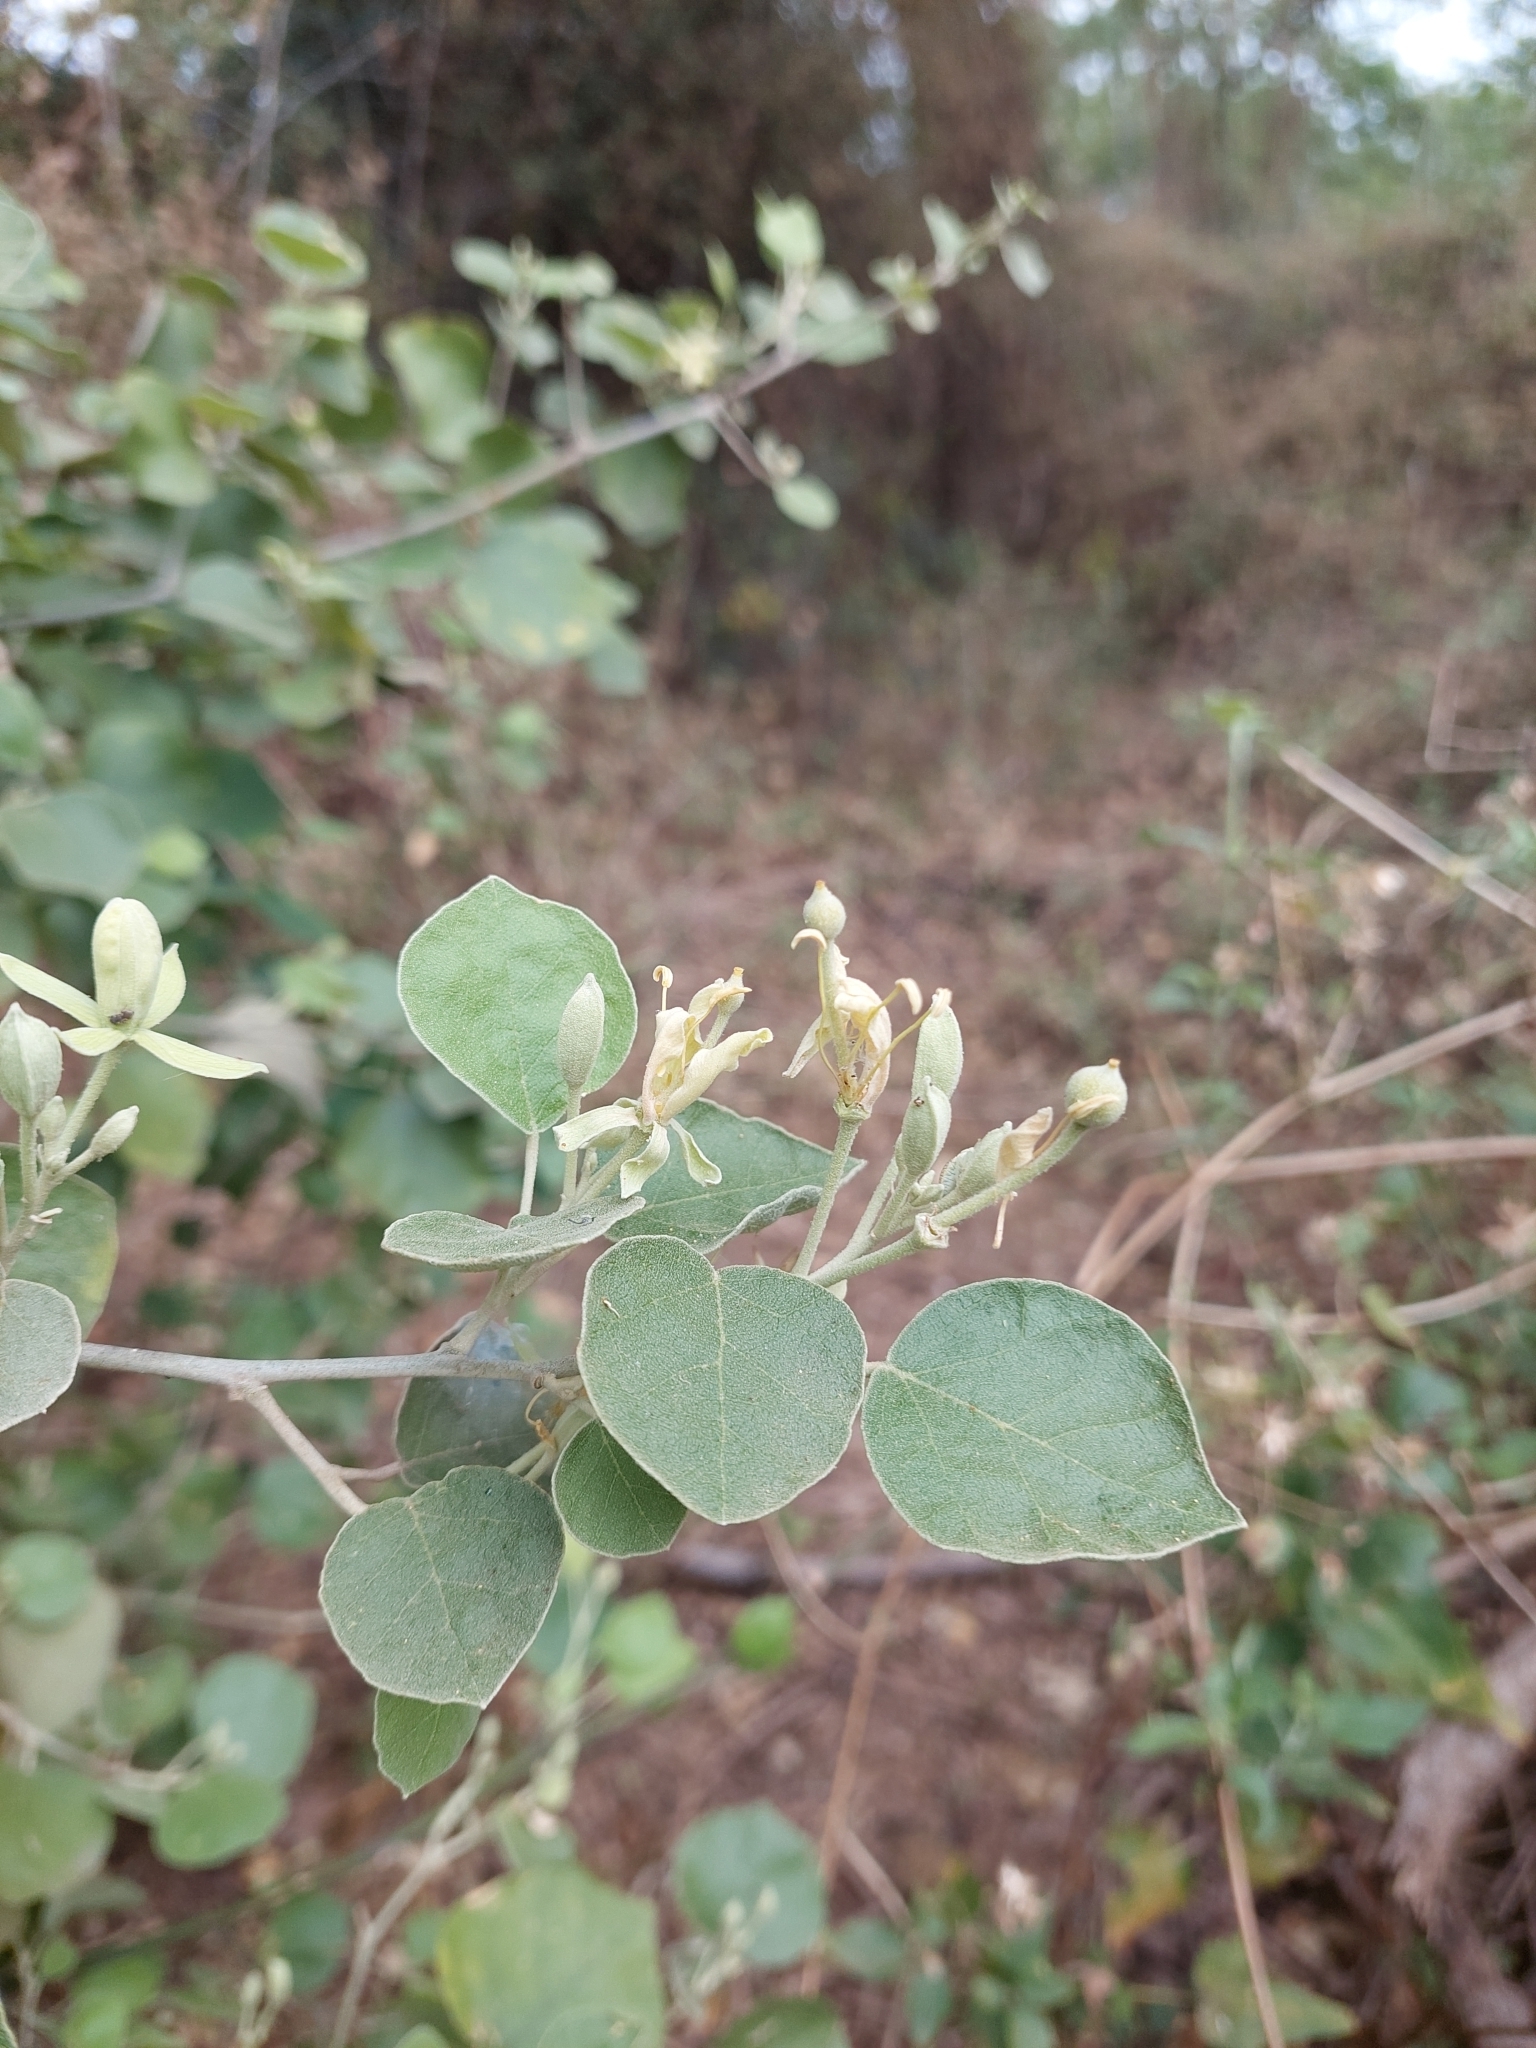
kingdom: Plantae
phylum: Tracheophyta
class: Magnoliopsida
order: Brassicales
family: Capparaceae
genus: Capparicordis
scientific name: Capparicordis tweedieana
